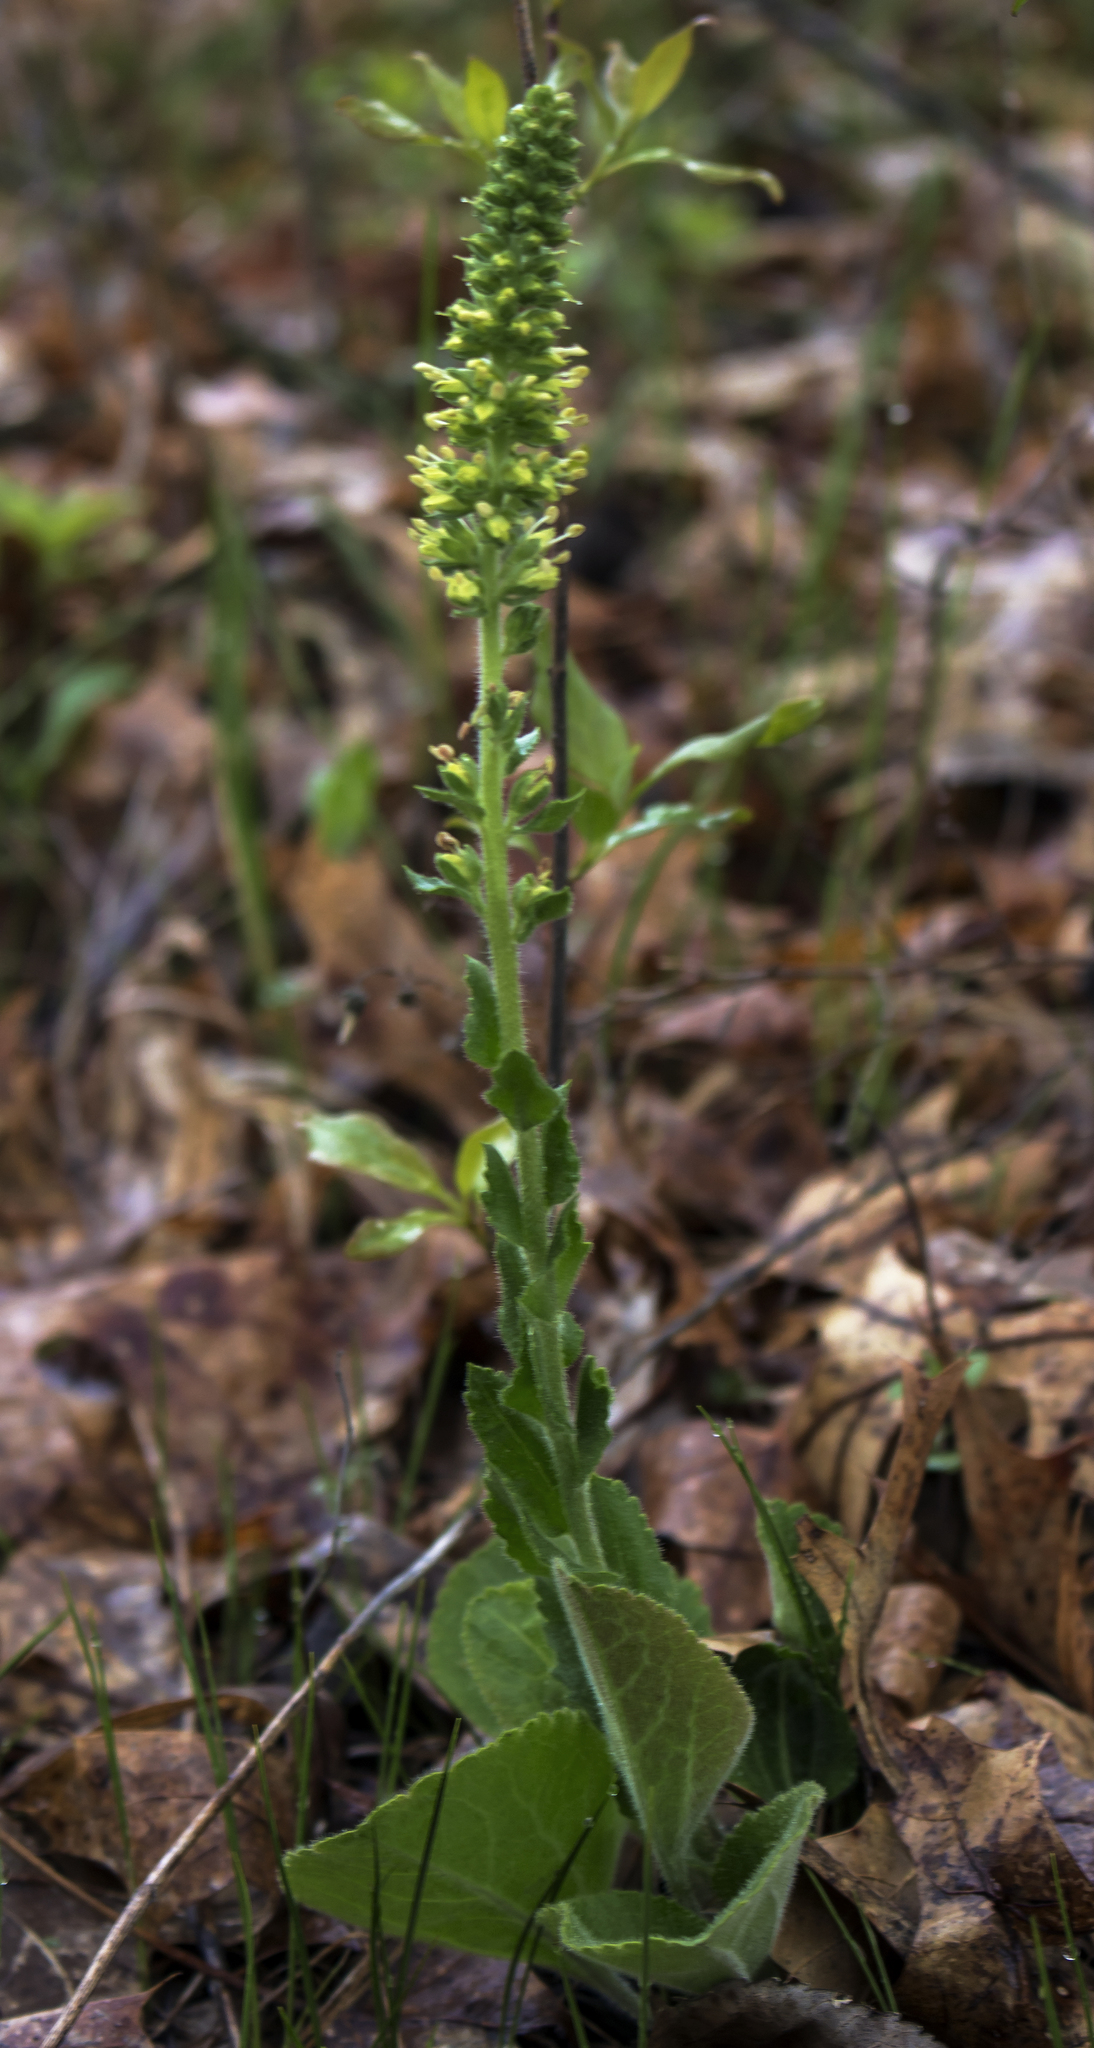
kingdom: Plantae
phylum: Tracheophyta
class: Magnoliopsida
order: Lamiales
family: Plantaginaceae
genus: Synthyris
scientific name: Synthyris bullii
